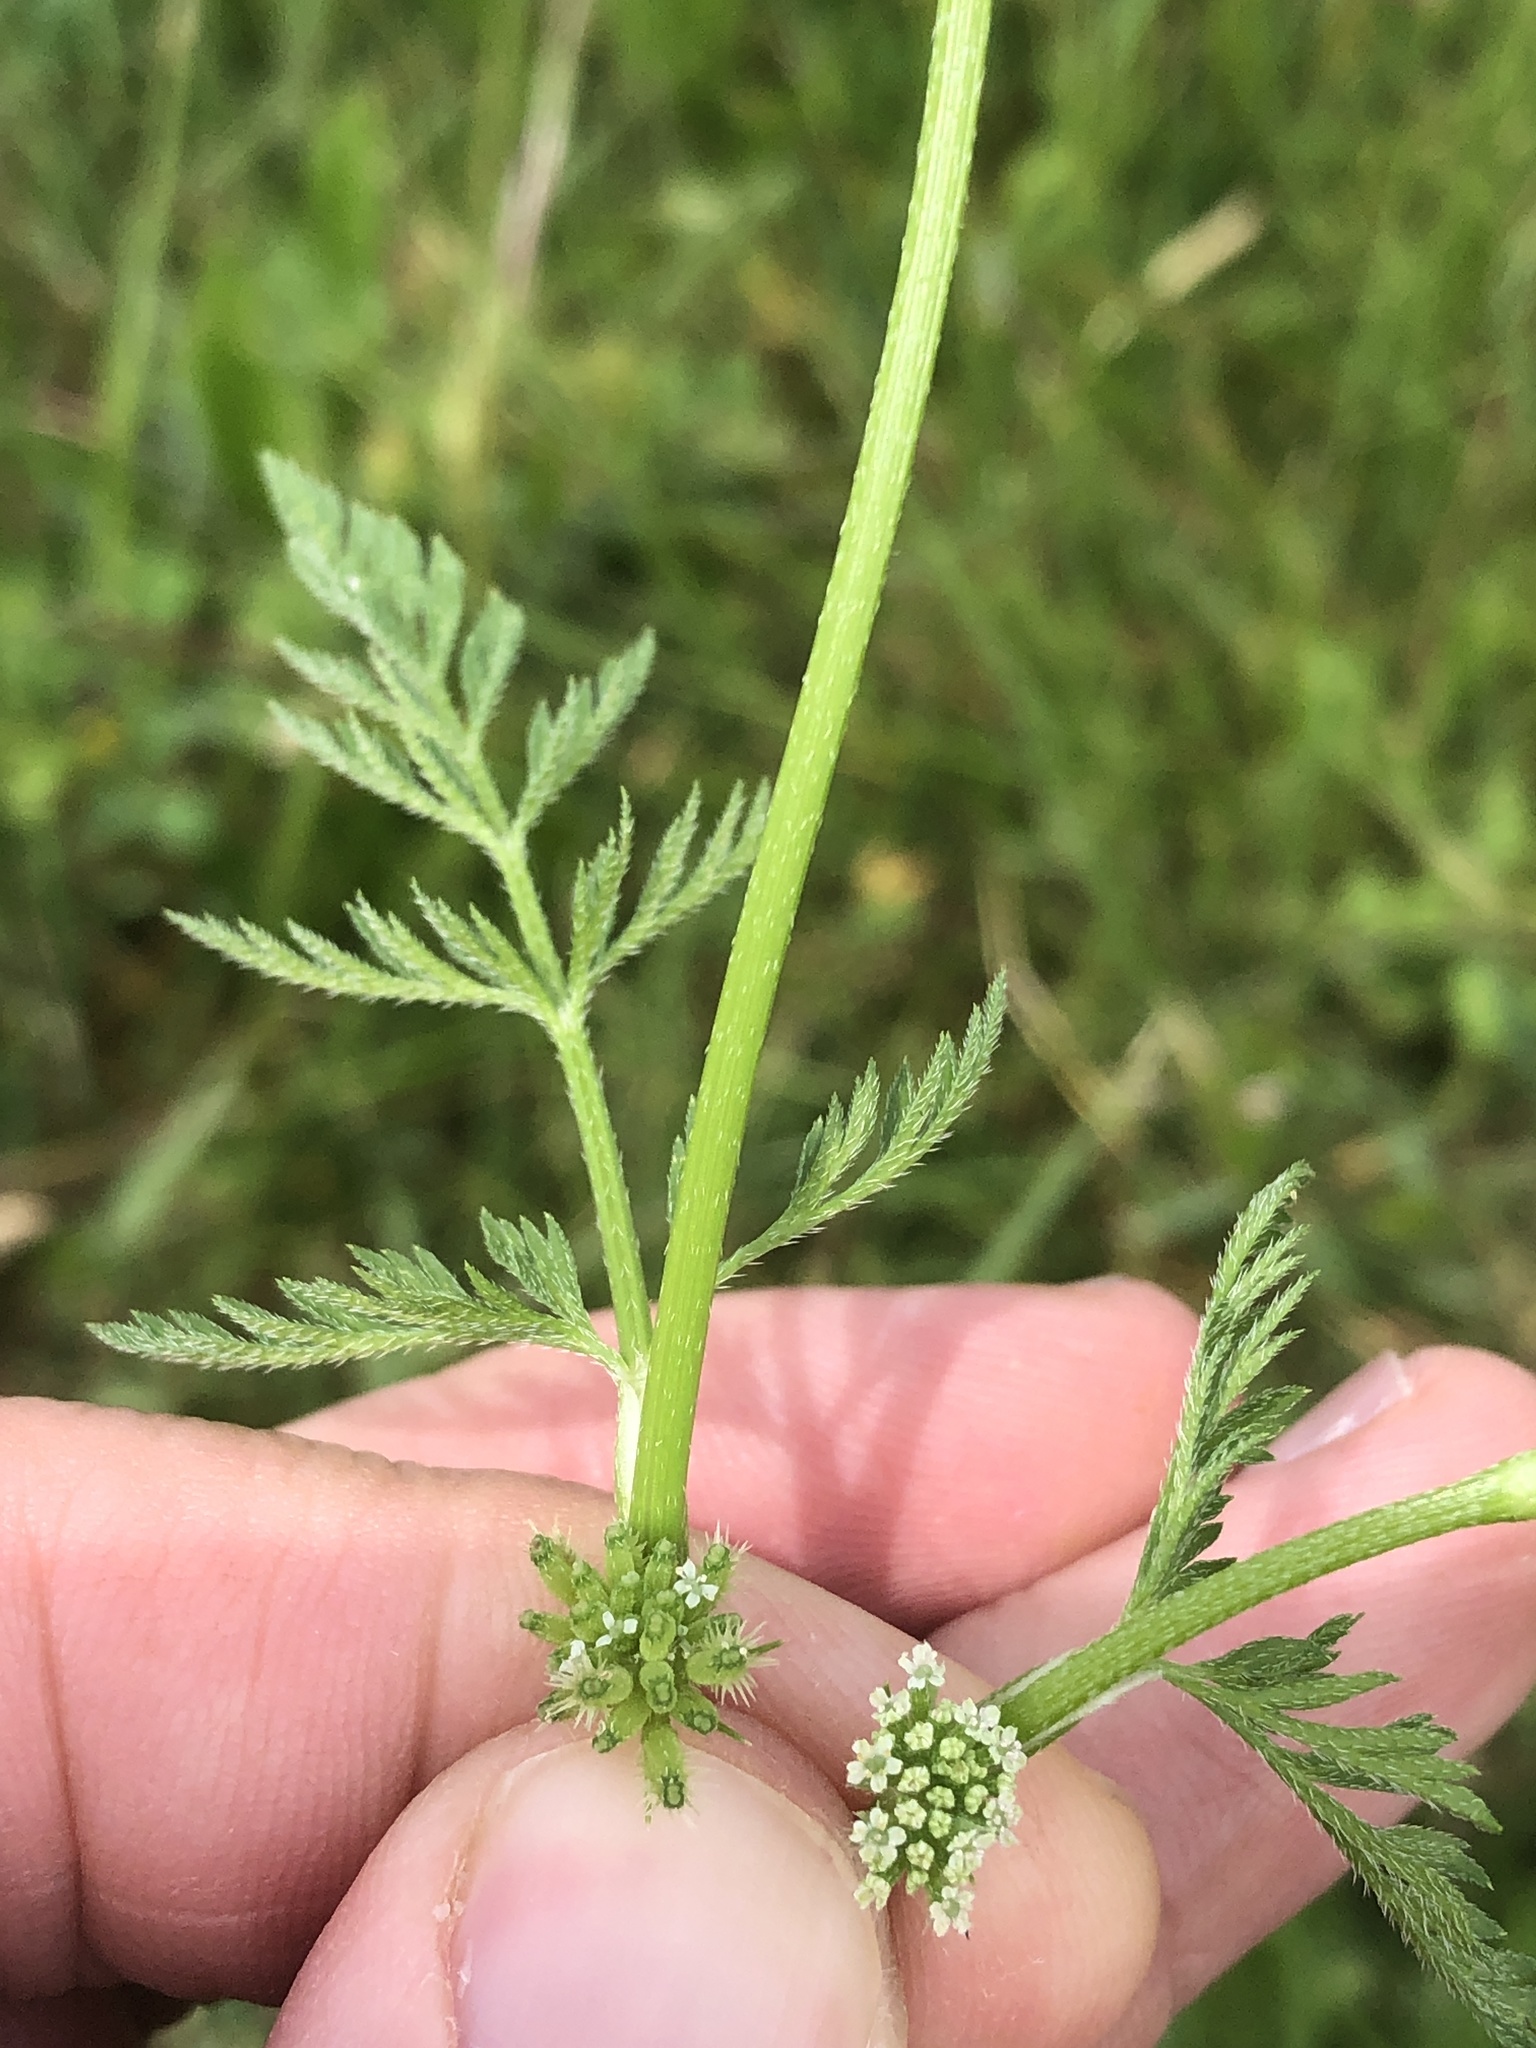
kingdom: Plantae
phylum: Tracheophyta
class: Magnoliopsida
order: Apiales
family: Apiaceae
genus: Torilis
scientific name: Torilis nodosa
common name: Knotted hedge-parsley
